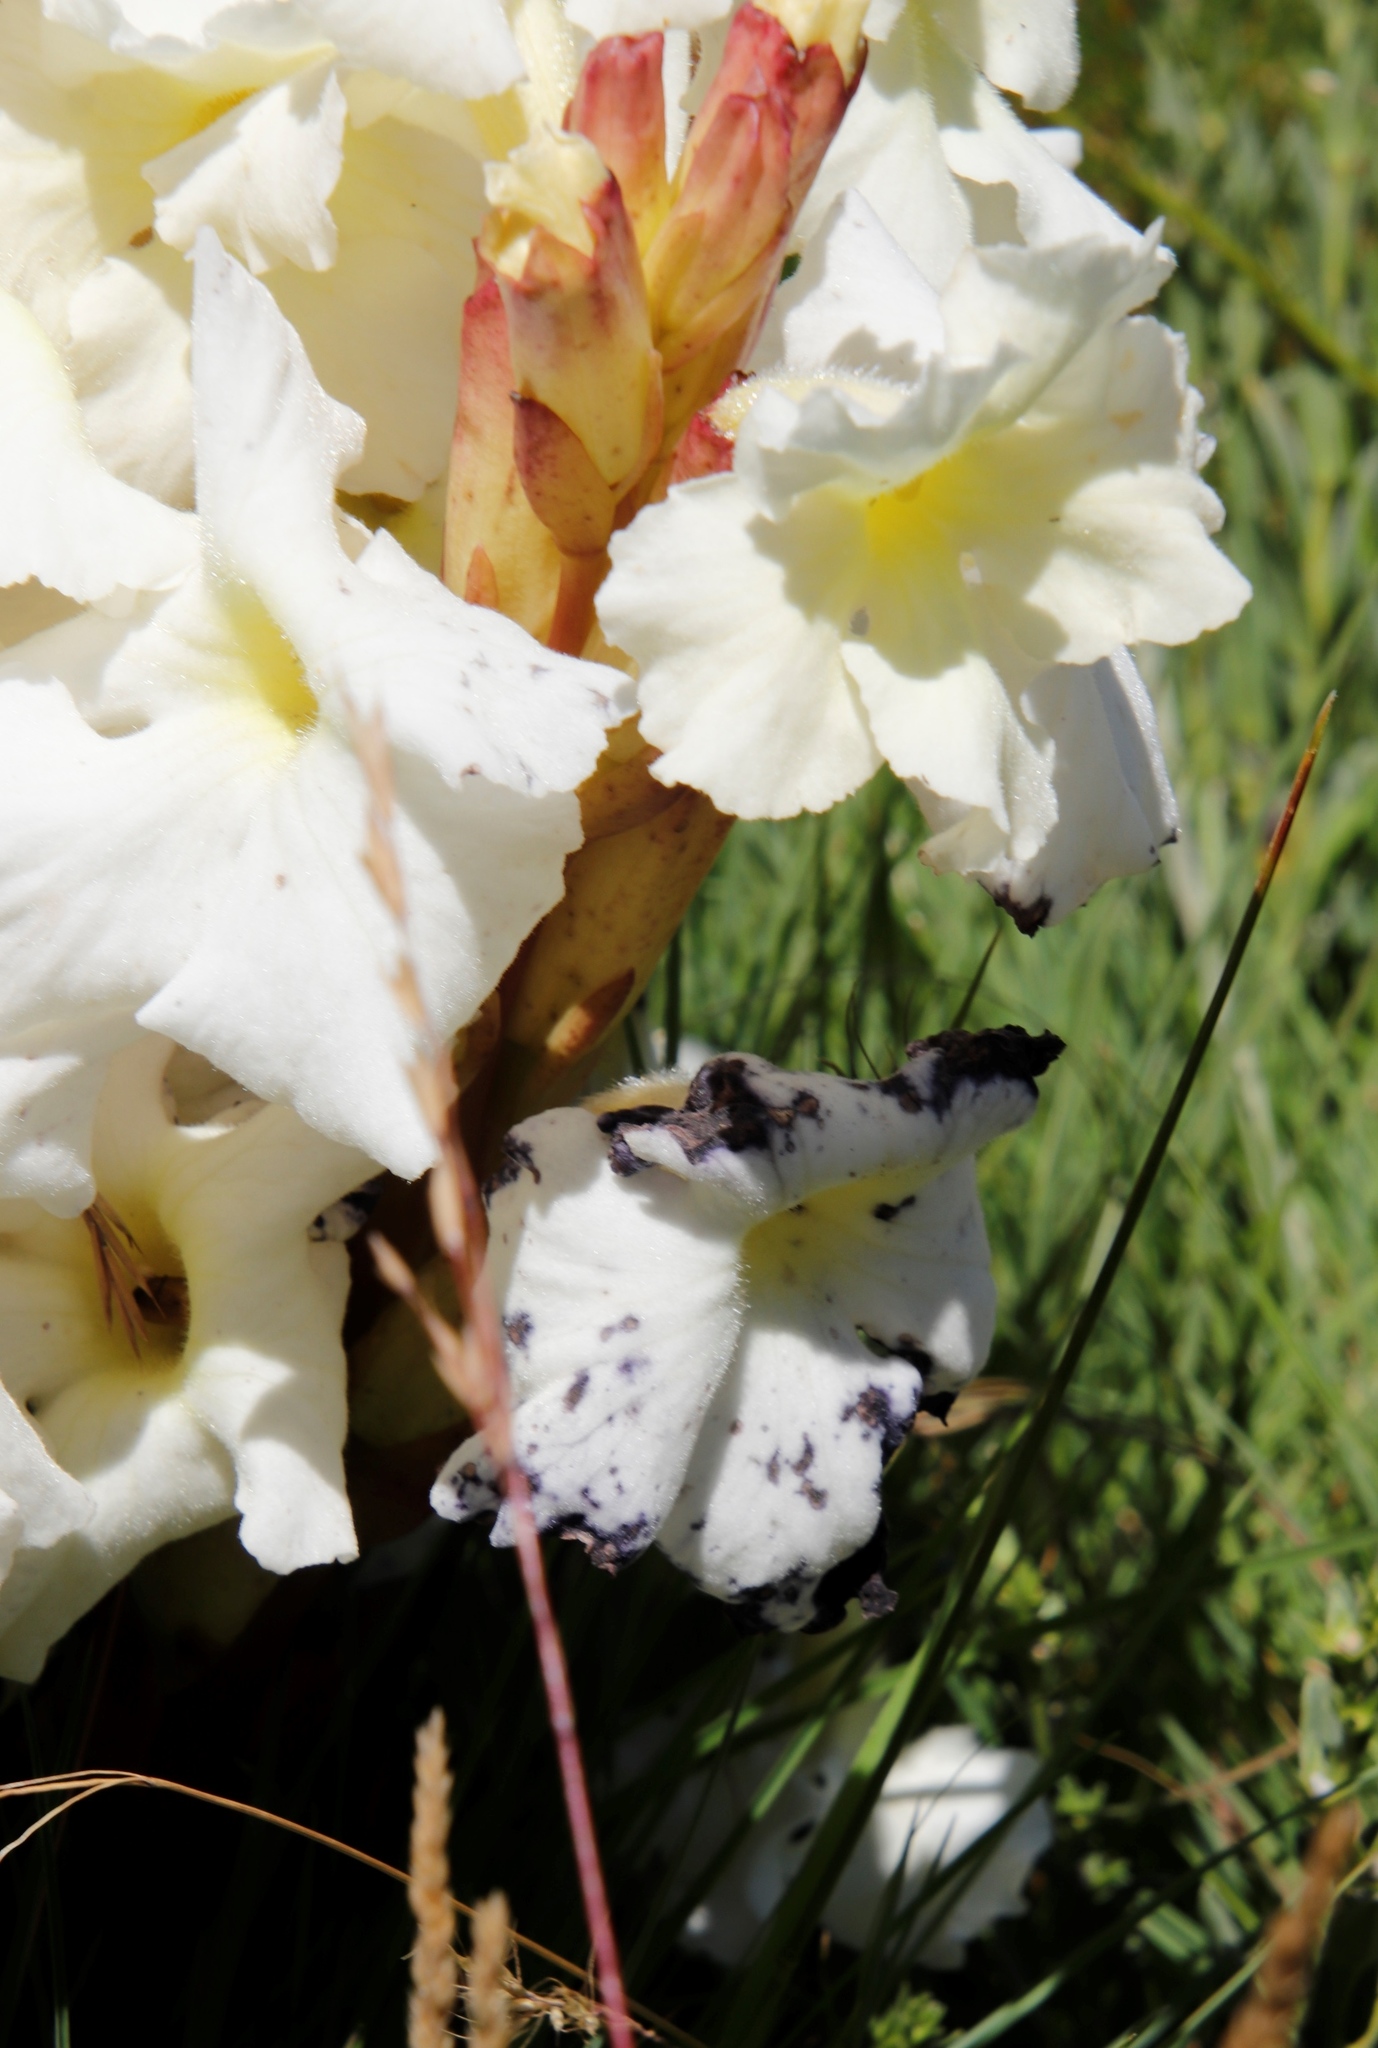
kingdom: Plantae
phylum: Tracheophyta
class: Magnoliopsida
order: Lamiales
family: Orobanchaceae
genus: Harveya
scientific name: Harveya speciosa
